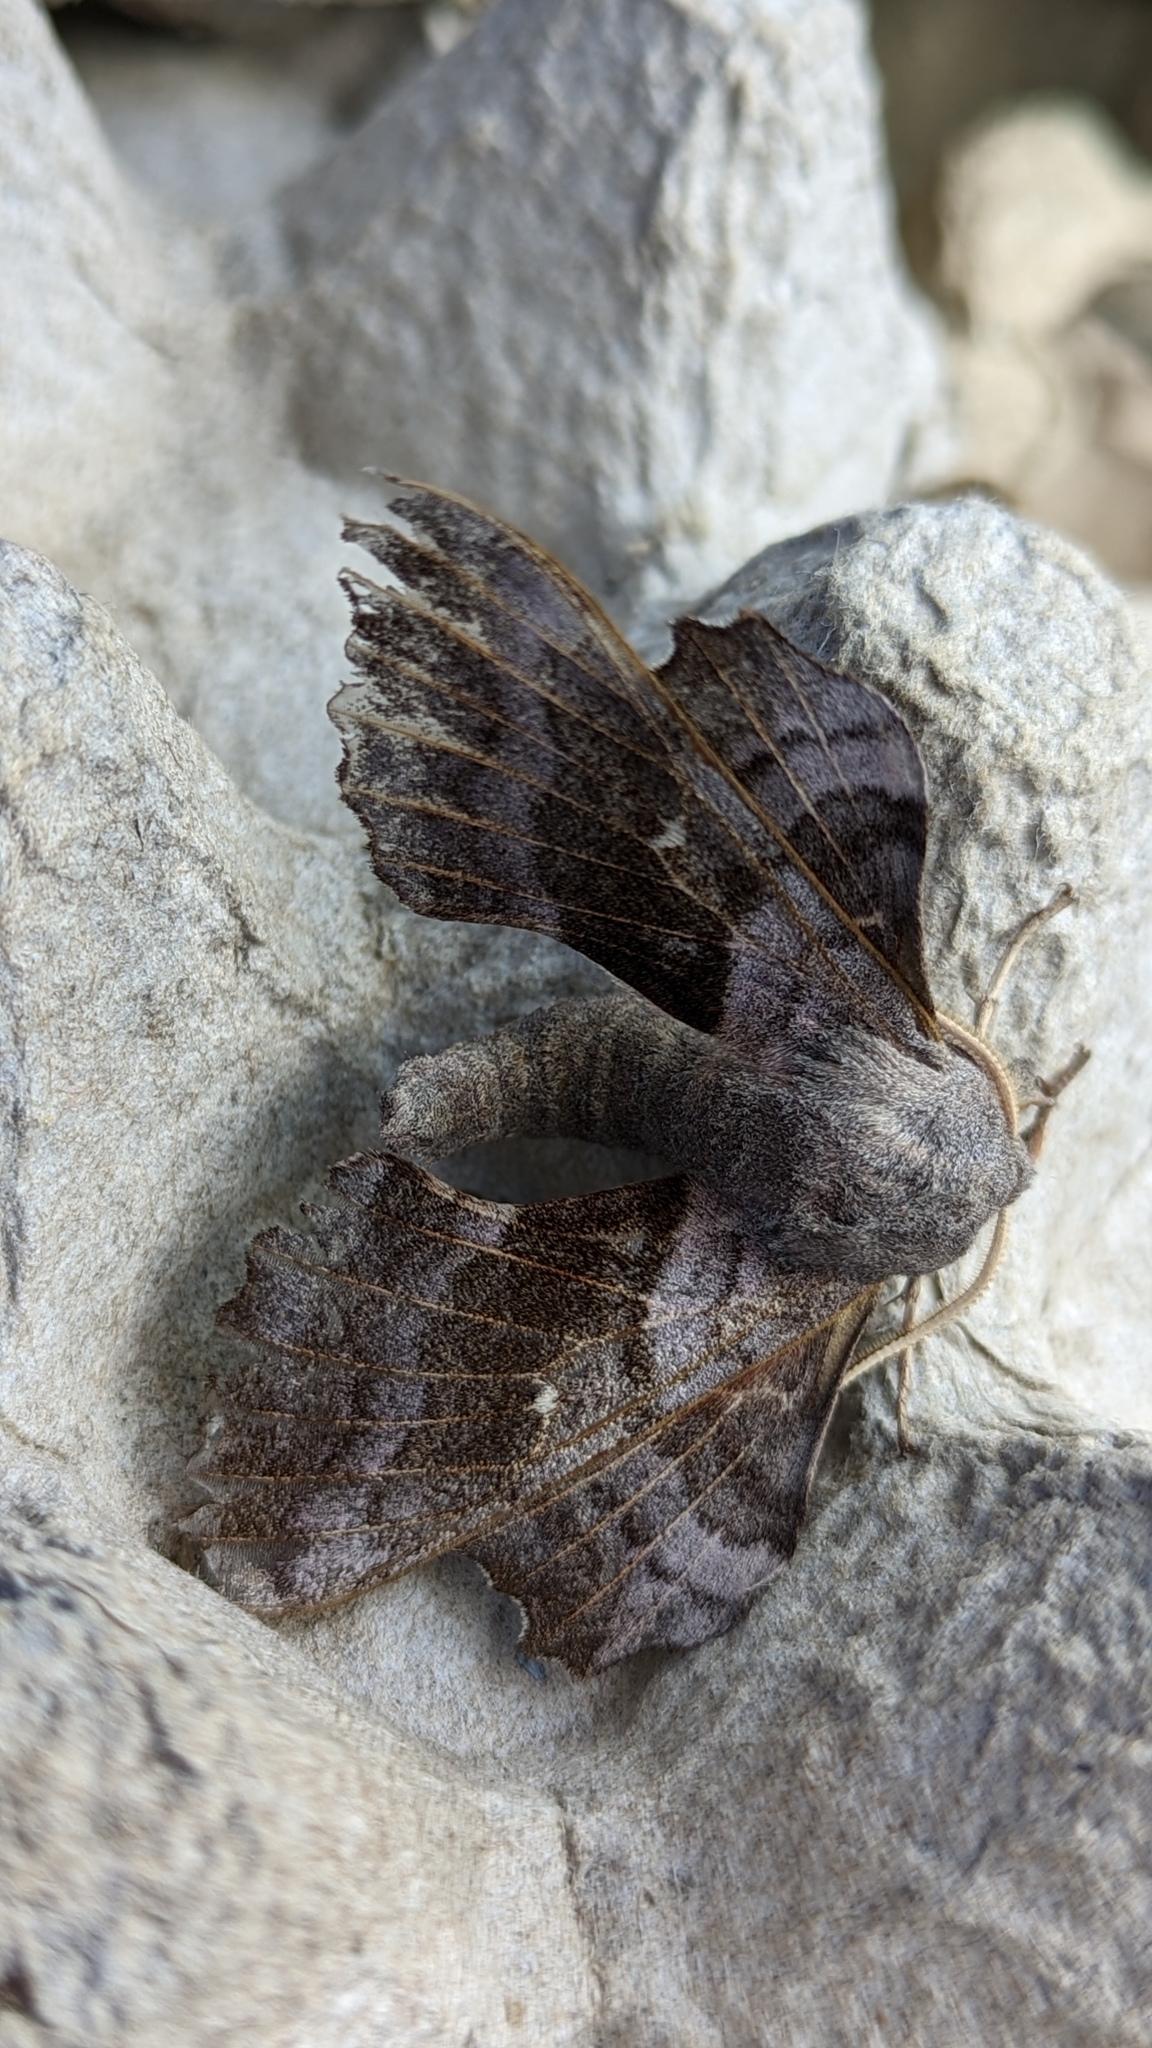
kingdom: Animalia
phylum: Arthropoda
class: Insecta
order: Lepidoptera
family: Sphingidae
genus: Laothoe
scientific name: Laothoe populi
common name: Poplar hawk-moth
